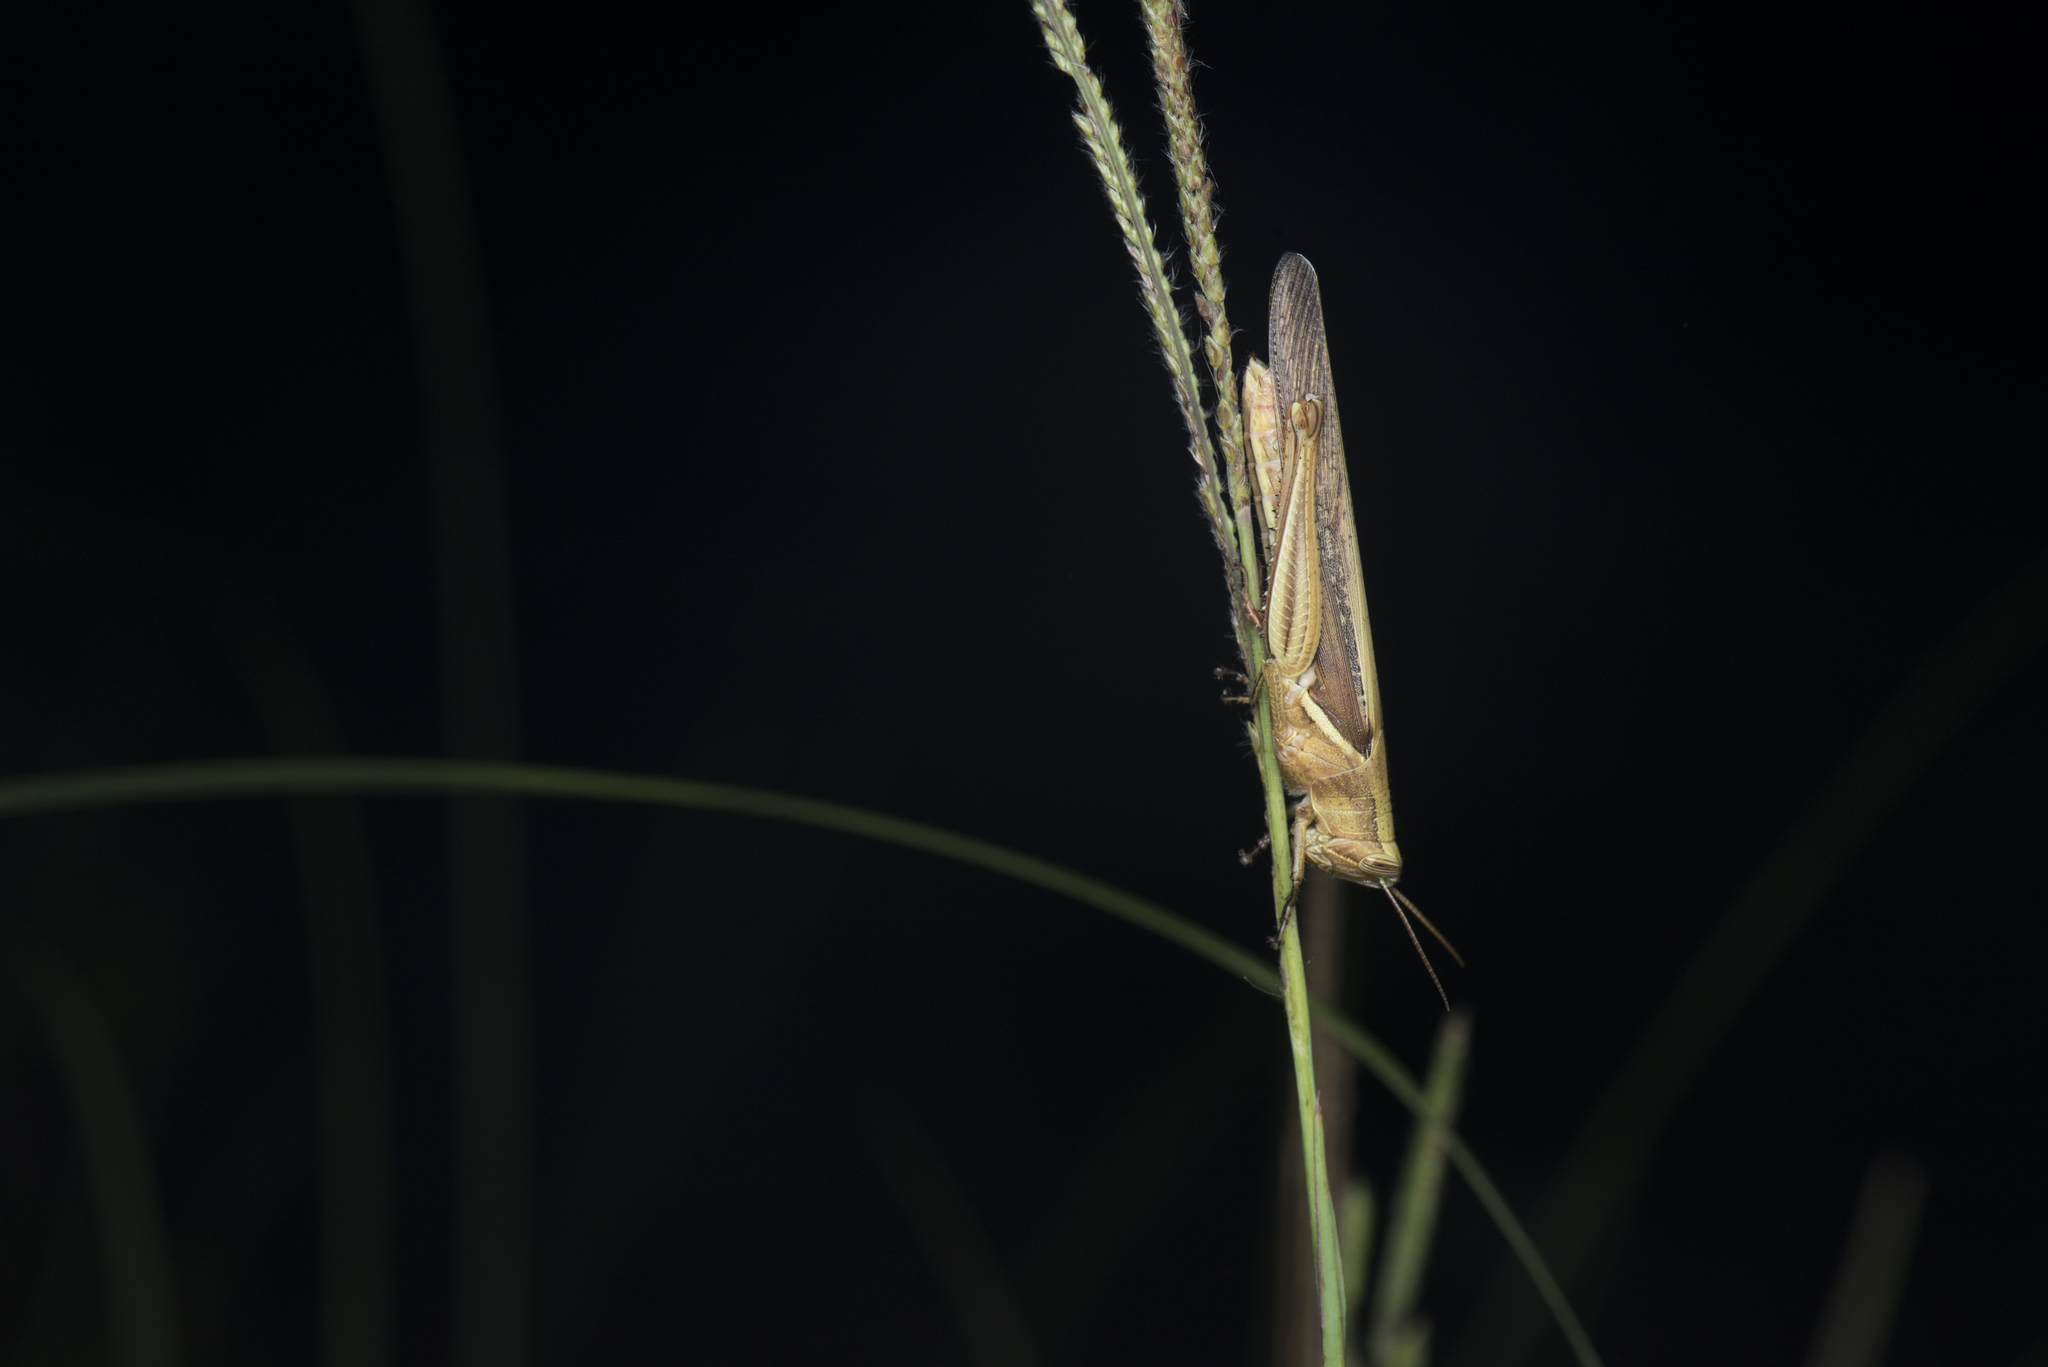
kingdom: Animalia
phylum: Arthropoda
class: Insecta
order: Orthoptera
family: Acrididae
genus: Stenocatantops
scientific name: Stenocatantops splendens
